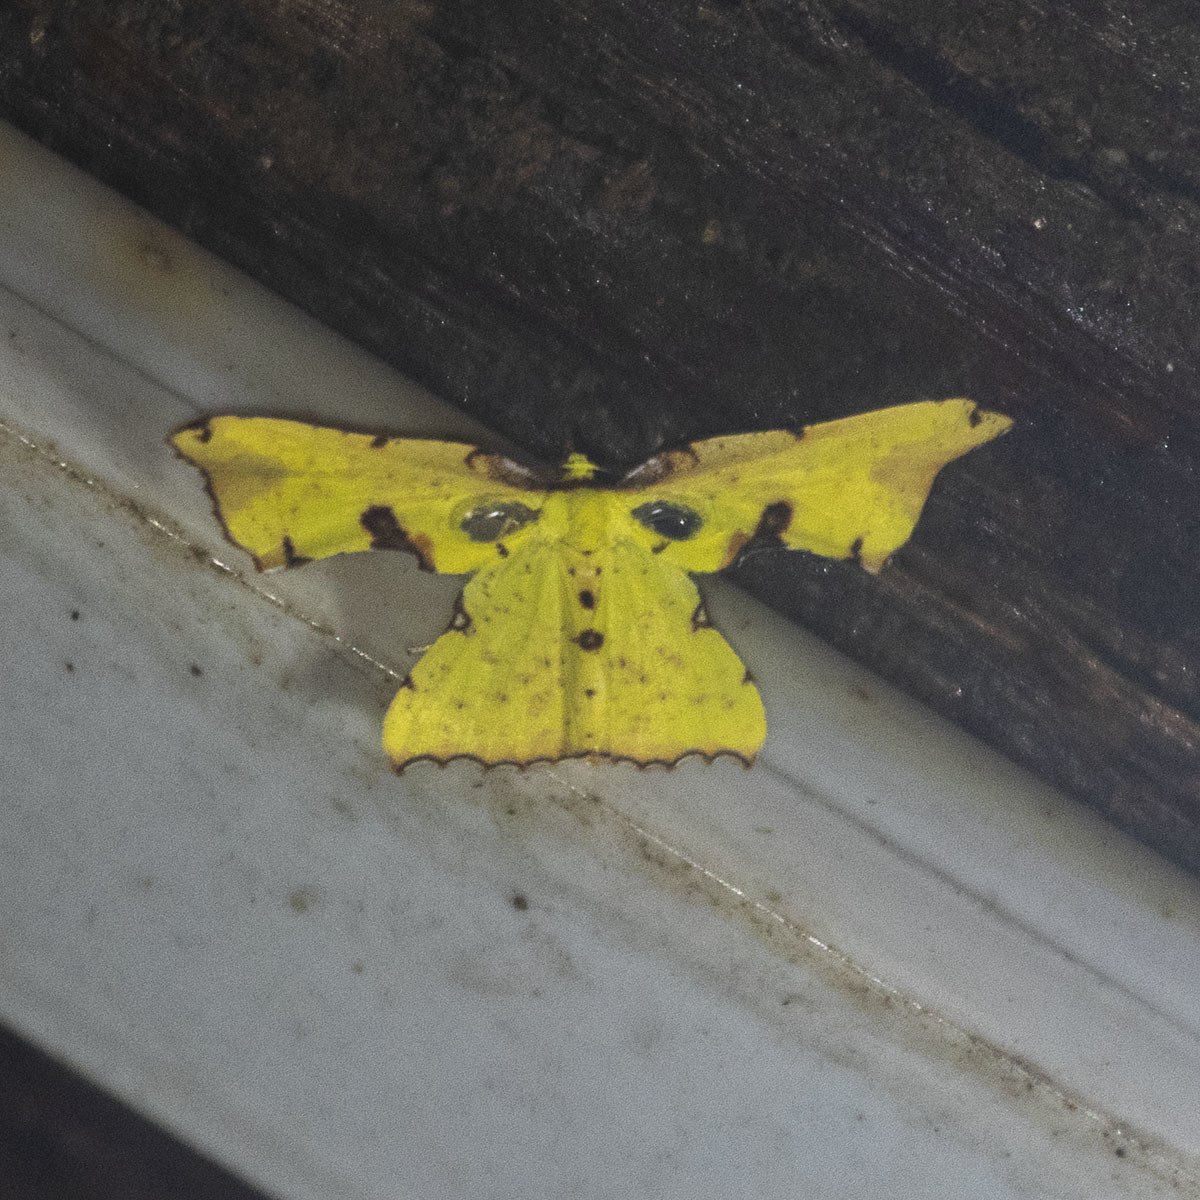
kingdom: Animalia
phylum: Arthropoda
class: Insecta
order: Lepidoptera
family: Geometridae
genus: Corymica
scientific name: Corymica arnearia
